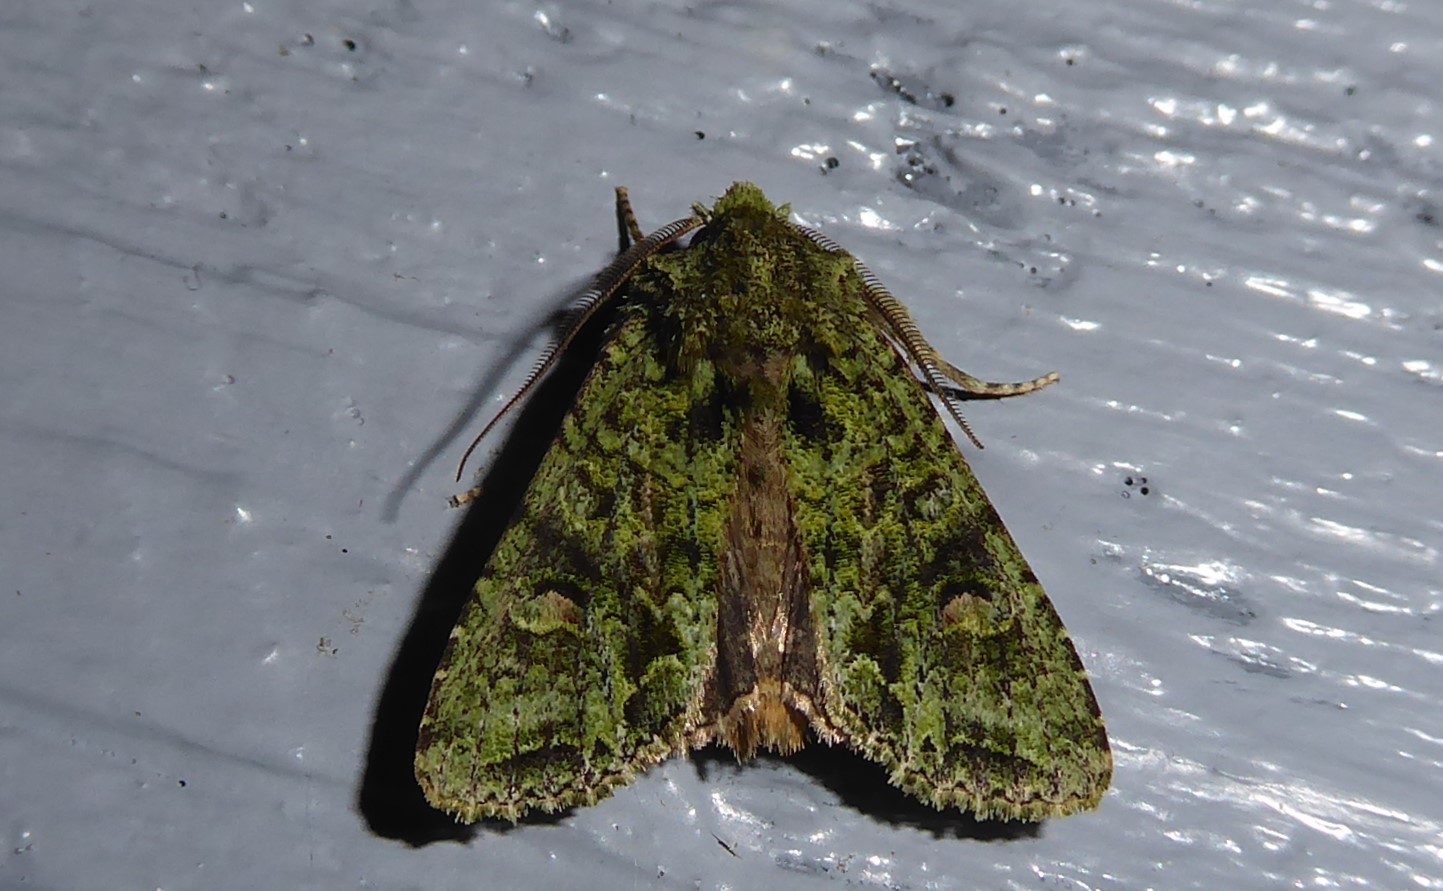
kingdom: Animalia
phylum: Arthropoda
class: Insecta
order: Lepidoptera
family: Noctuidae
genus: Ichneutica
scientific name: Ichneutica
